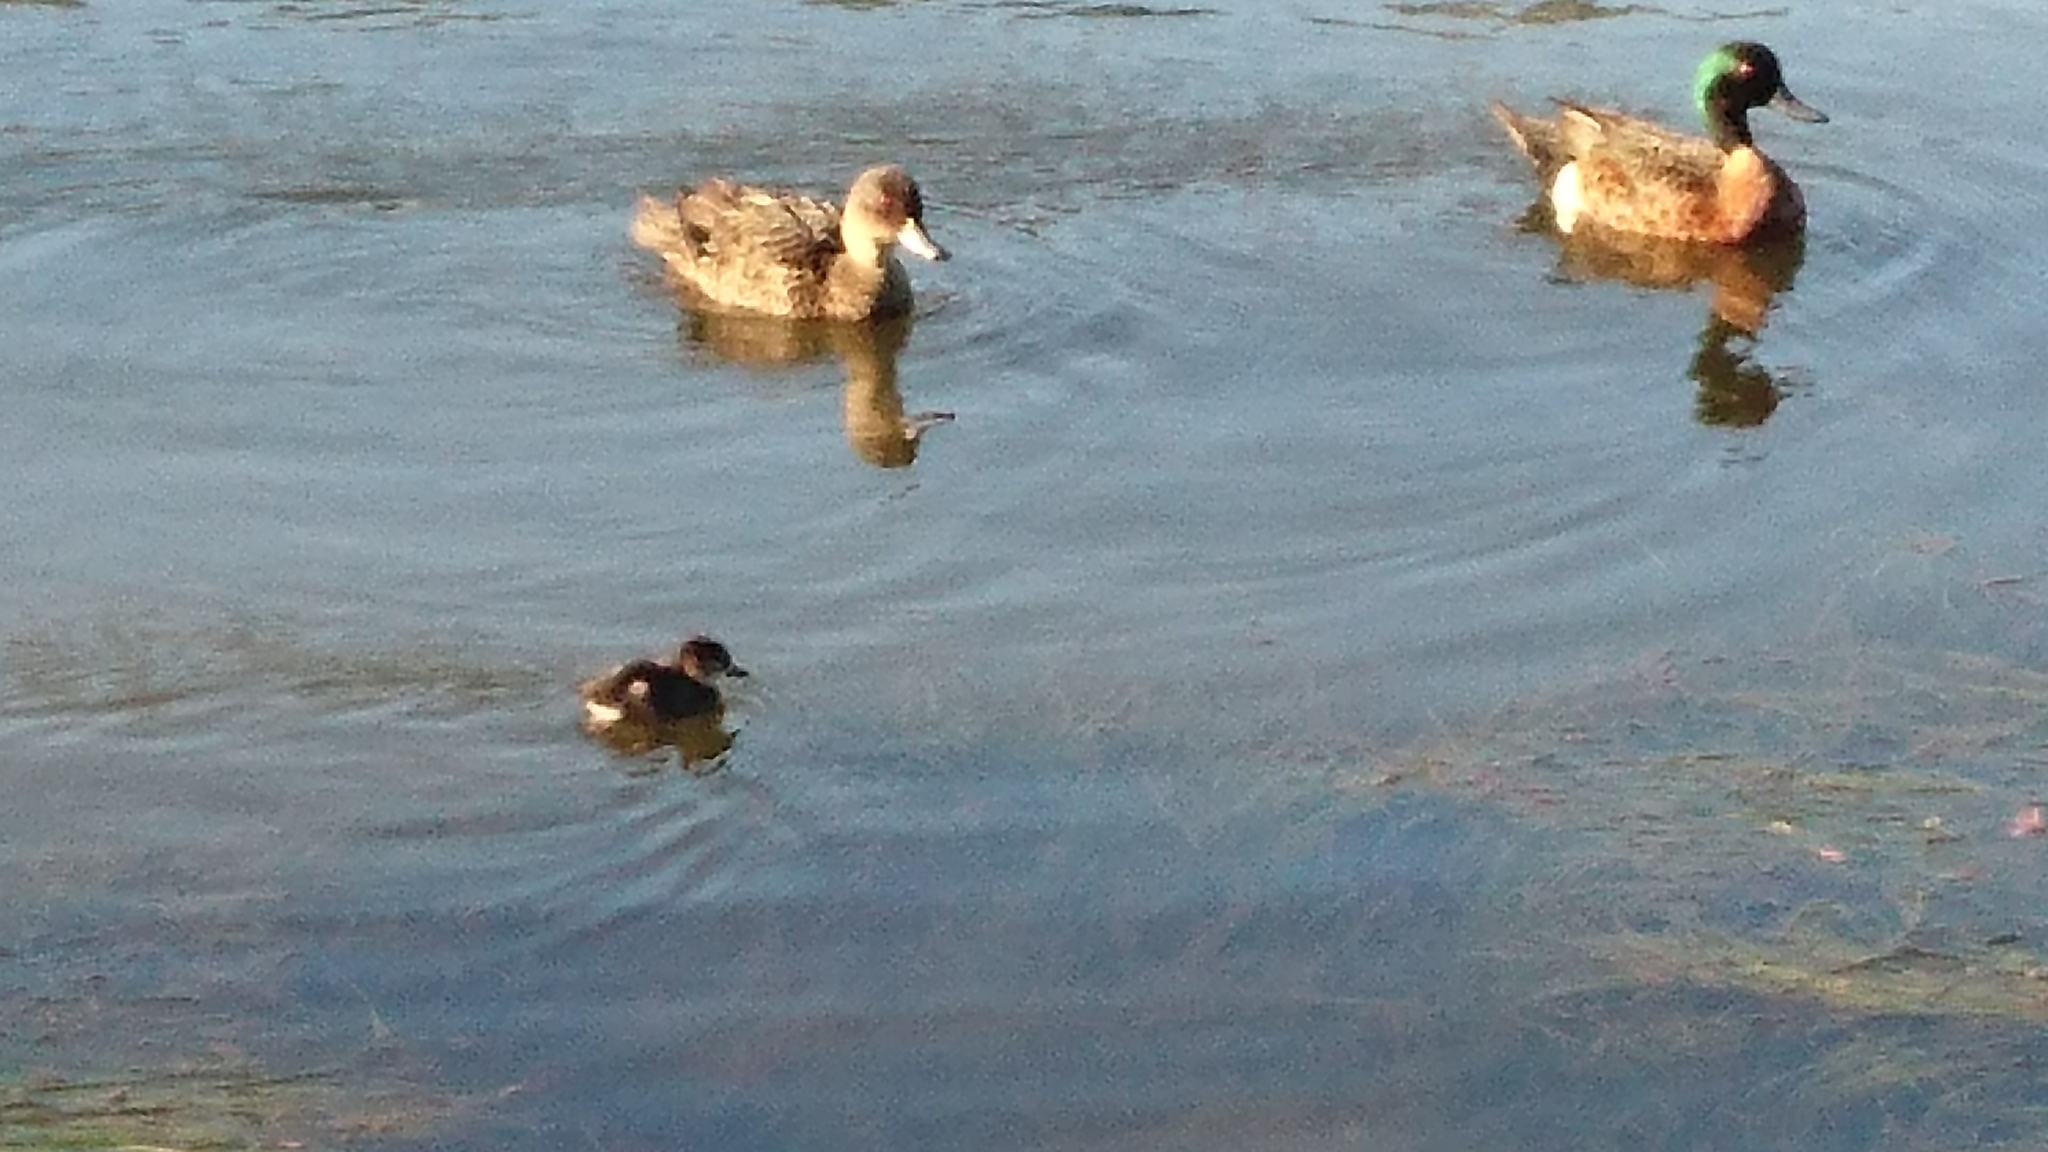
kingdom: Animalia
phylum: Chordata
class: Aves
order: Anseriformes
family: Anatidae
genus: Anas
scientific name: Anas castanea
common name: Chestnut teal
